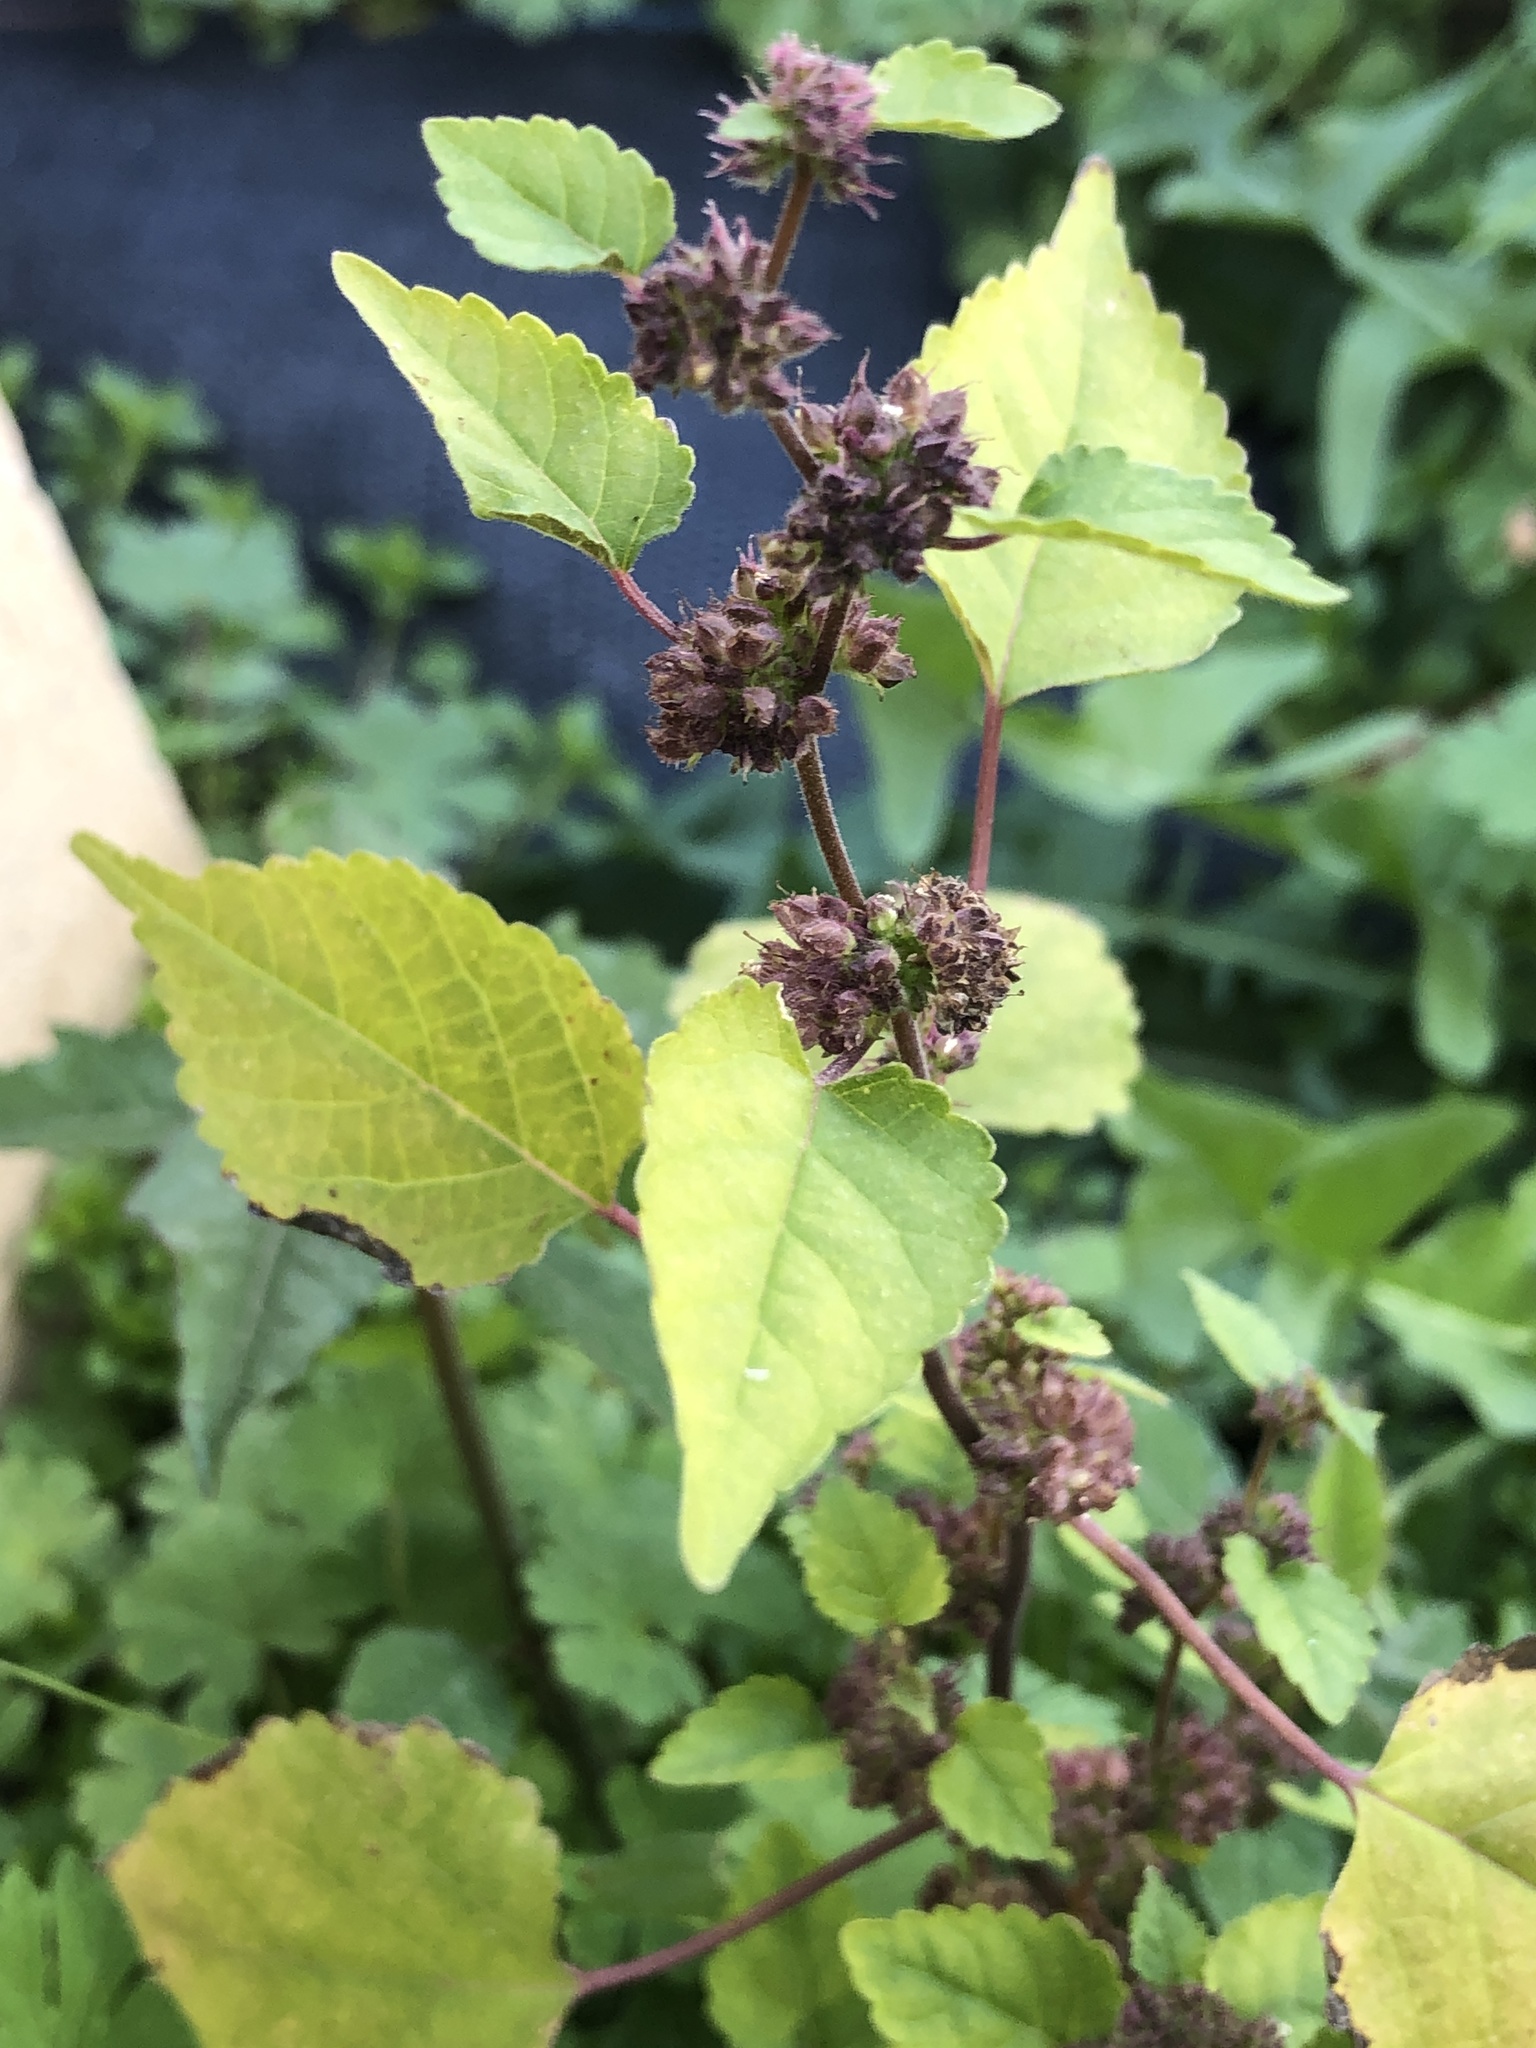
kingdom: Plantae
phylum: Tracheophyta
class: Magnoliopsida
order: Rosales
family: Moraceae
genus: Fatoua
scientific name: Fatoua villosa
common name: Hairy crabweed
